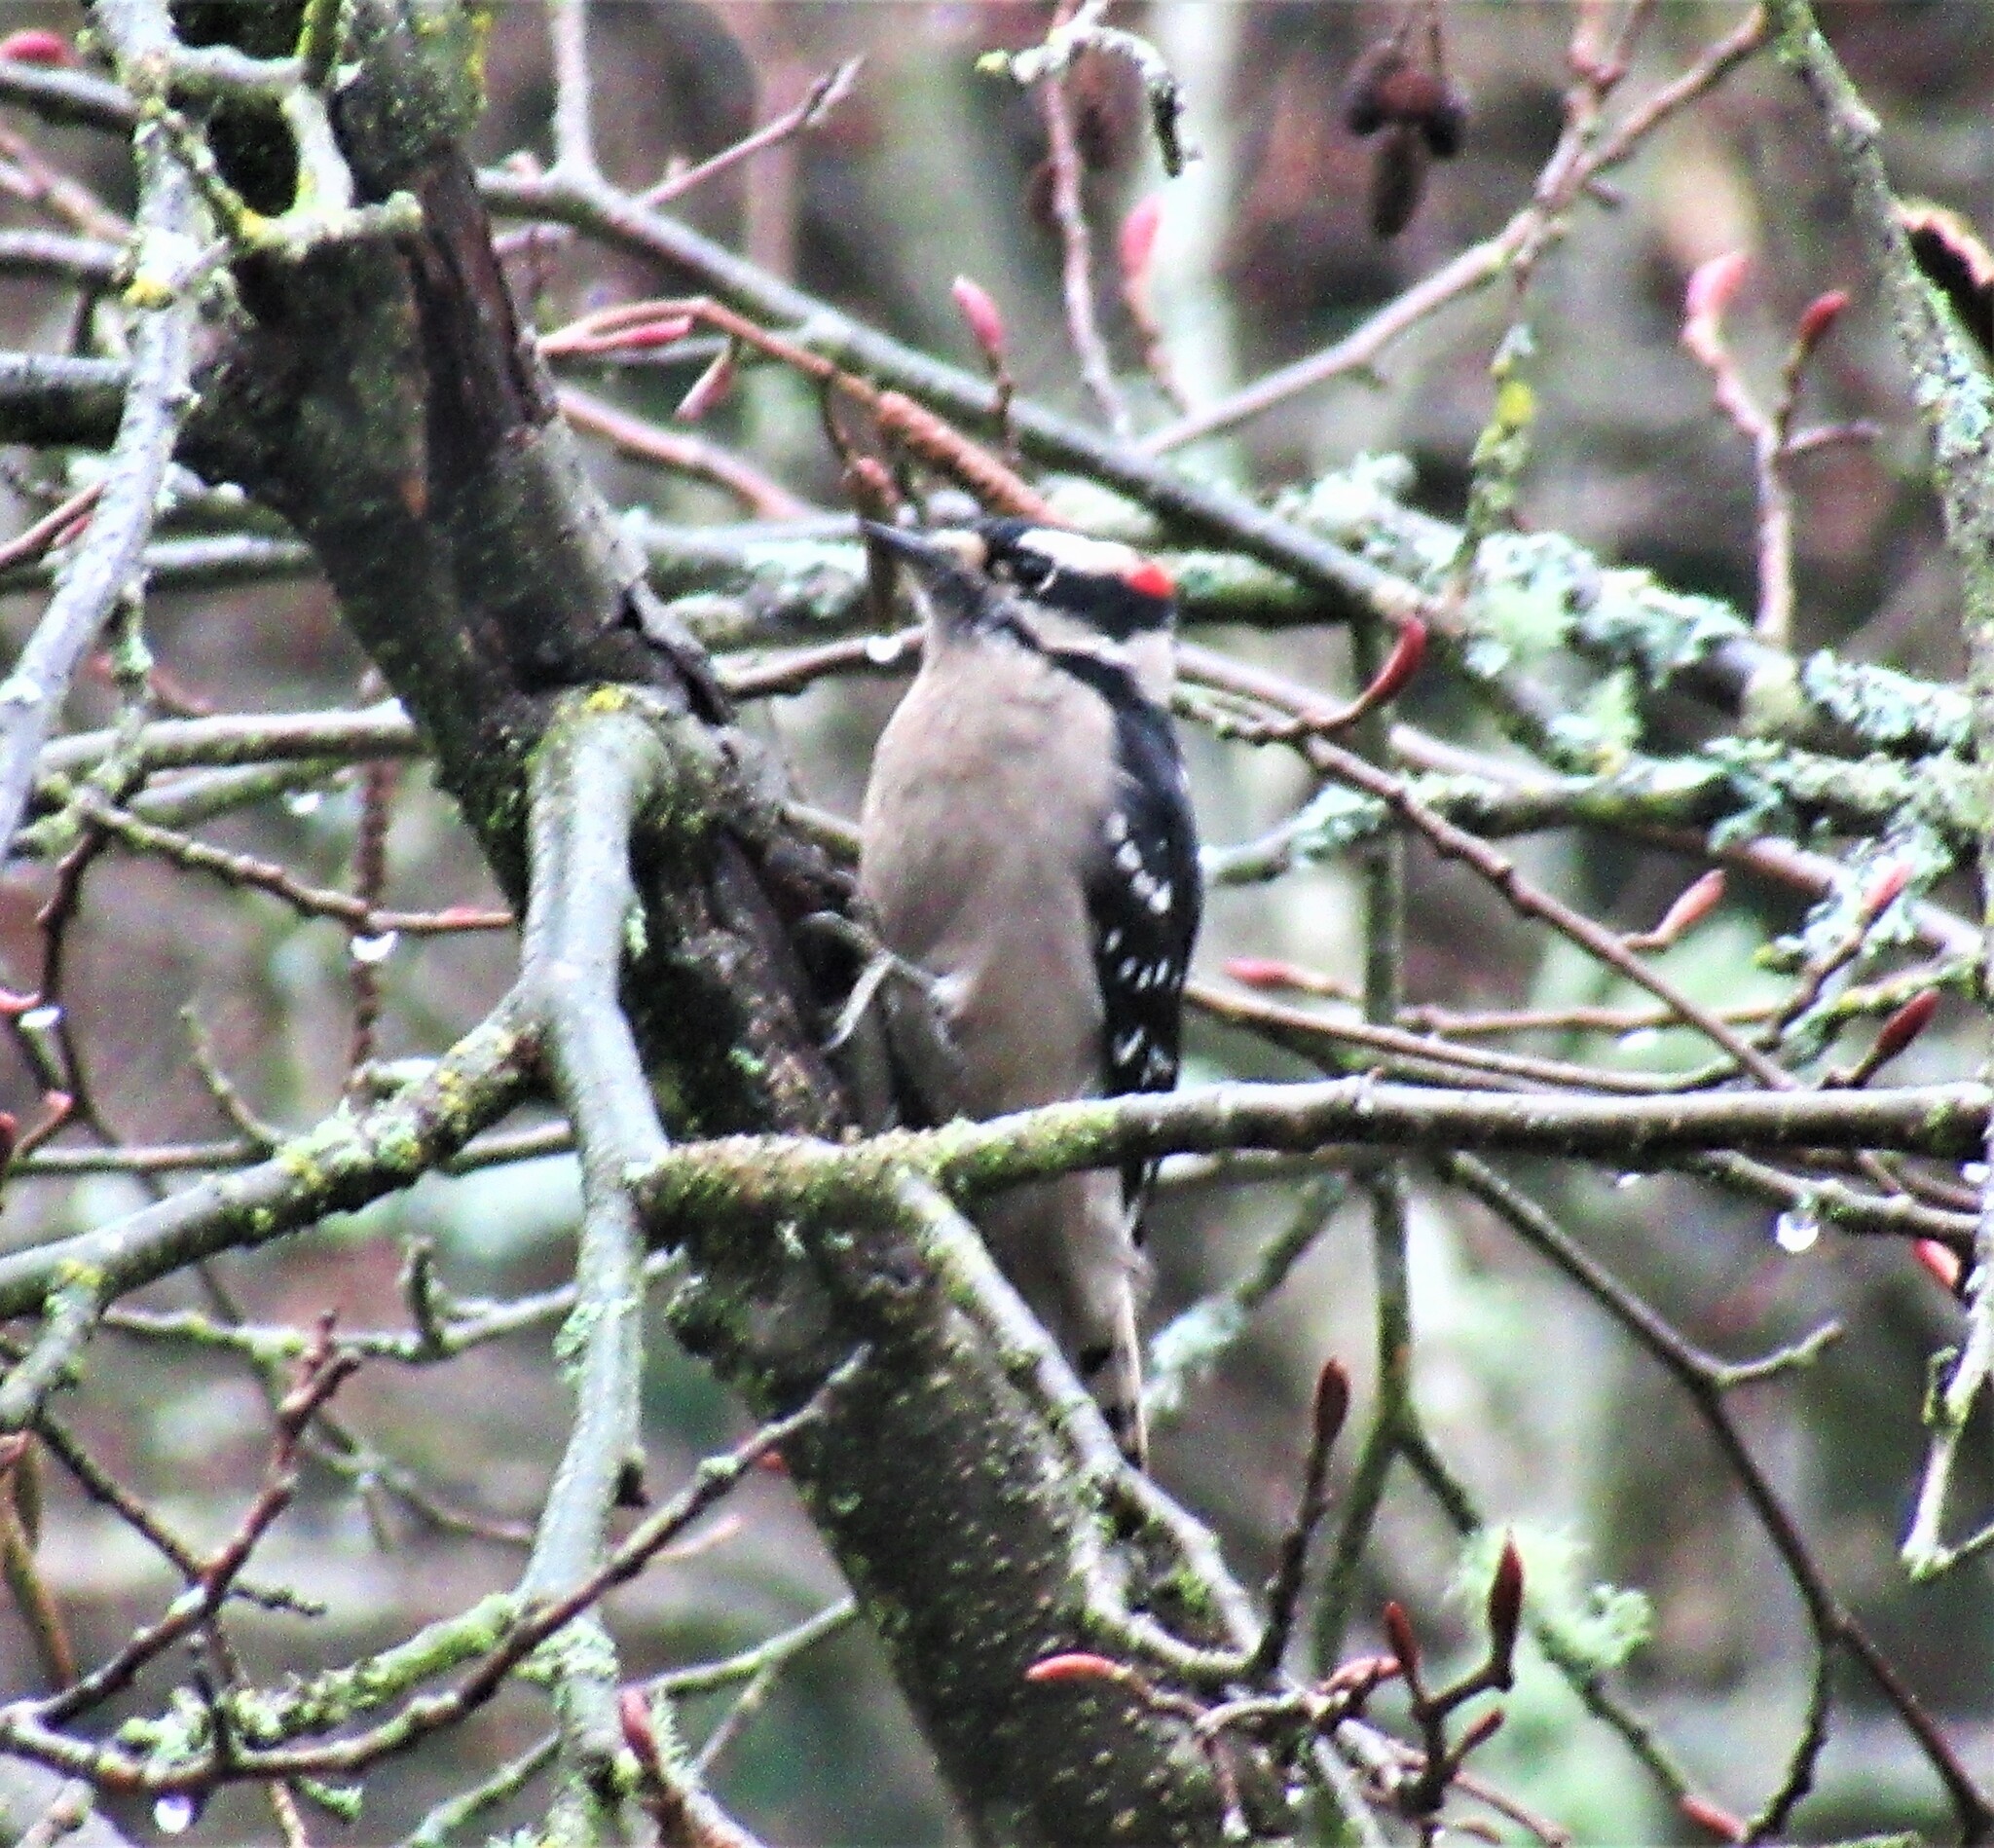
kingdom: Animalia
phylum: Chordata
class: Aves
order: Piciformes
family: Picidae
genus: Dryobates
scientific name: Dryobates pubescens
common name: Downy woodpecker
